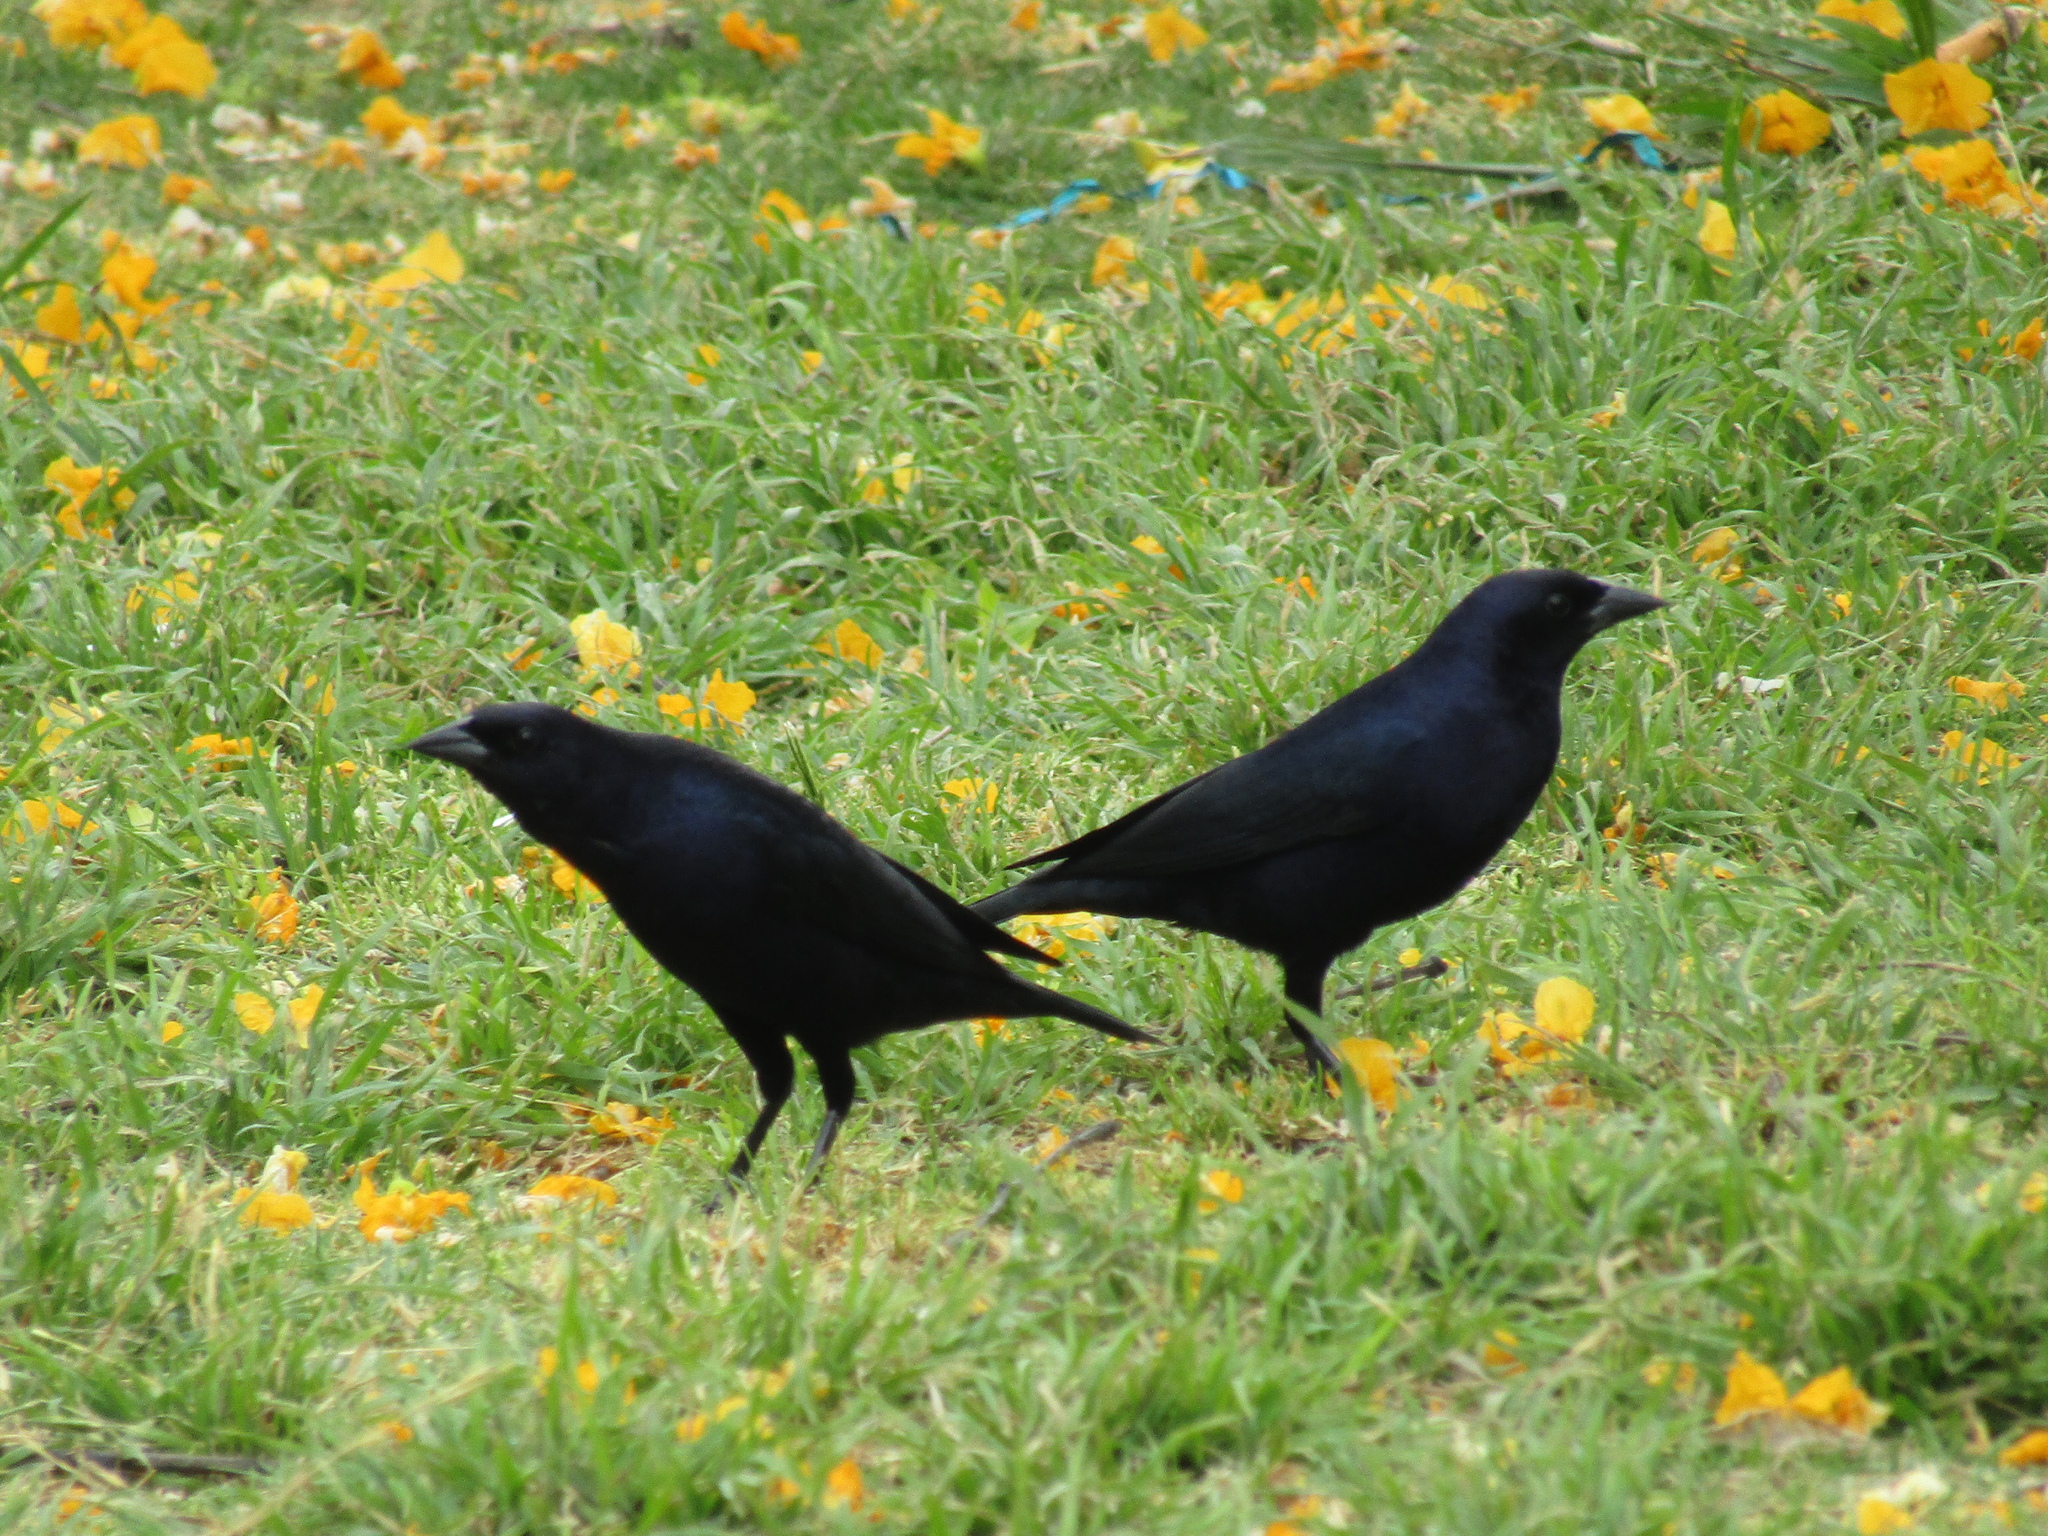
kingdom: Animalia
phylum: Chordata
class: Aves
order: Passeriformes
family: Icteridae
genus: Molothrus
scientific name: Molothrus bonariensis
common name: Shiny cowbird
